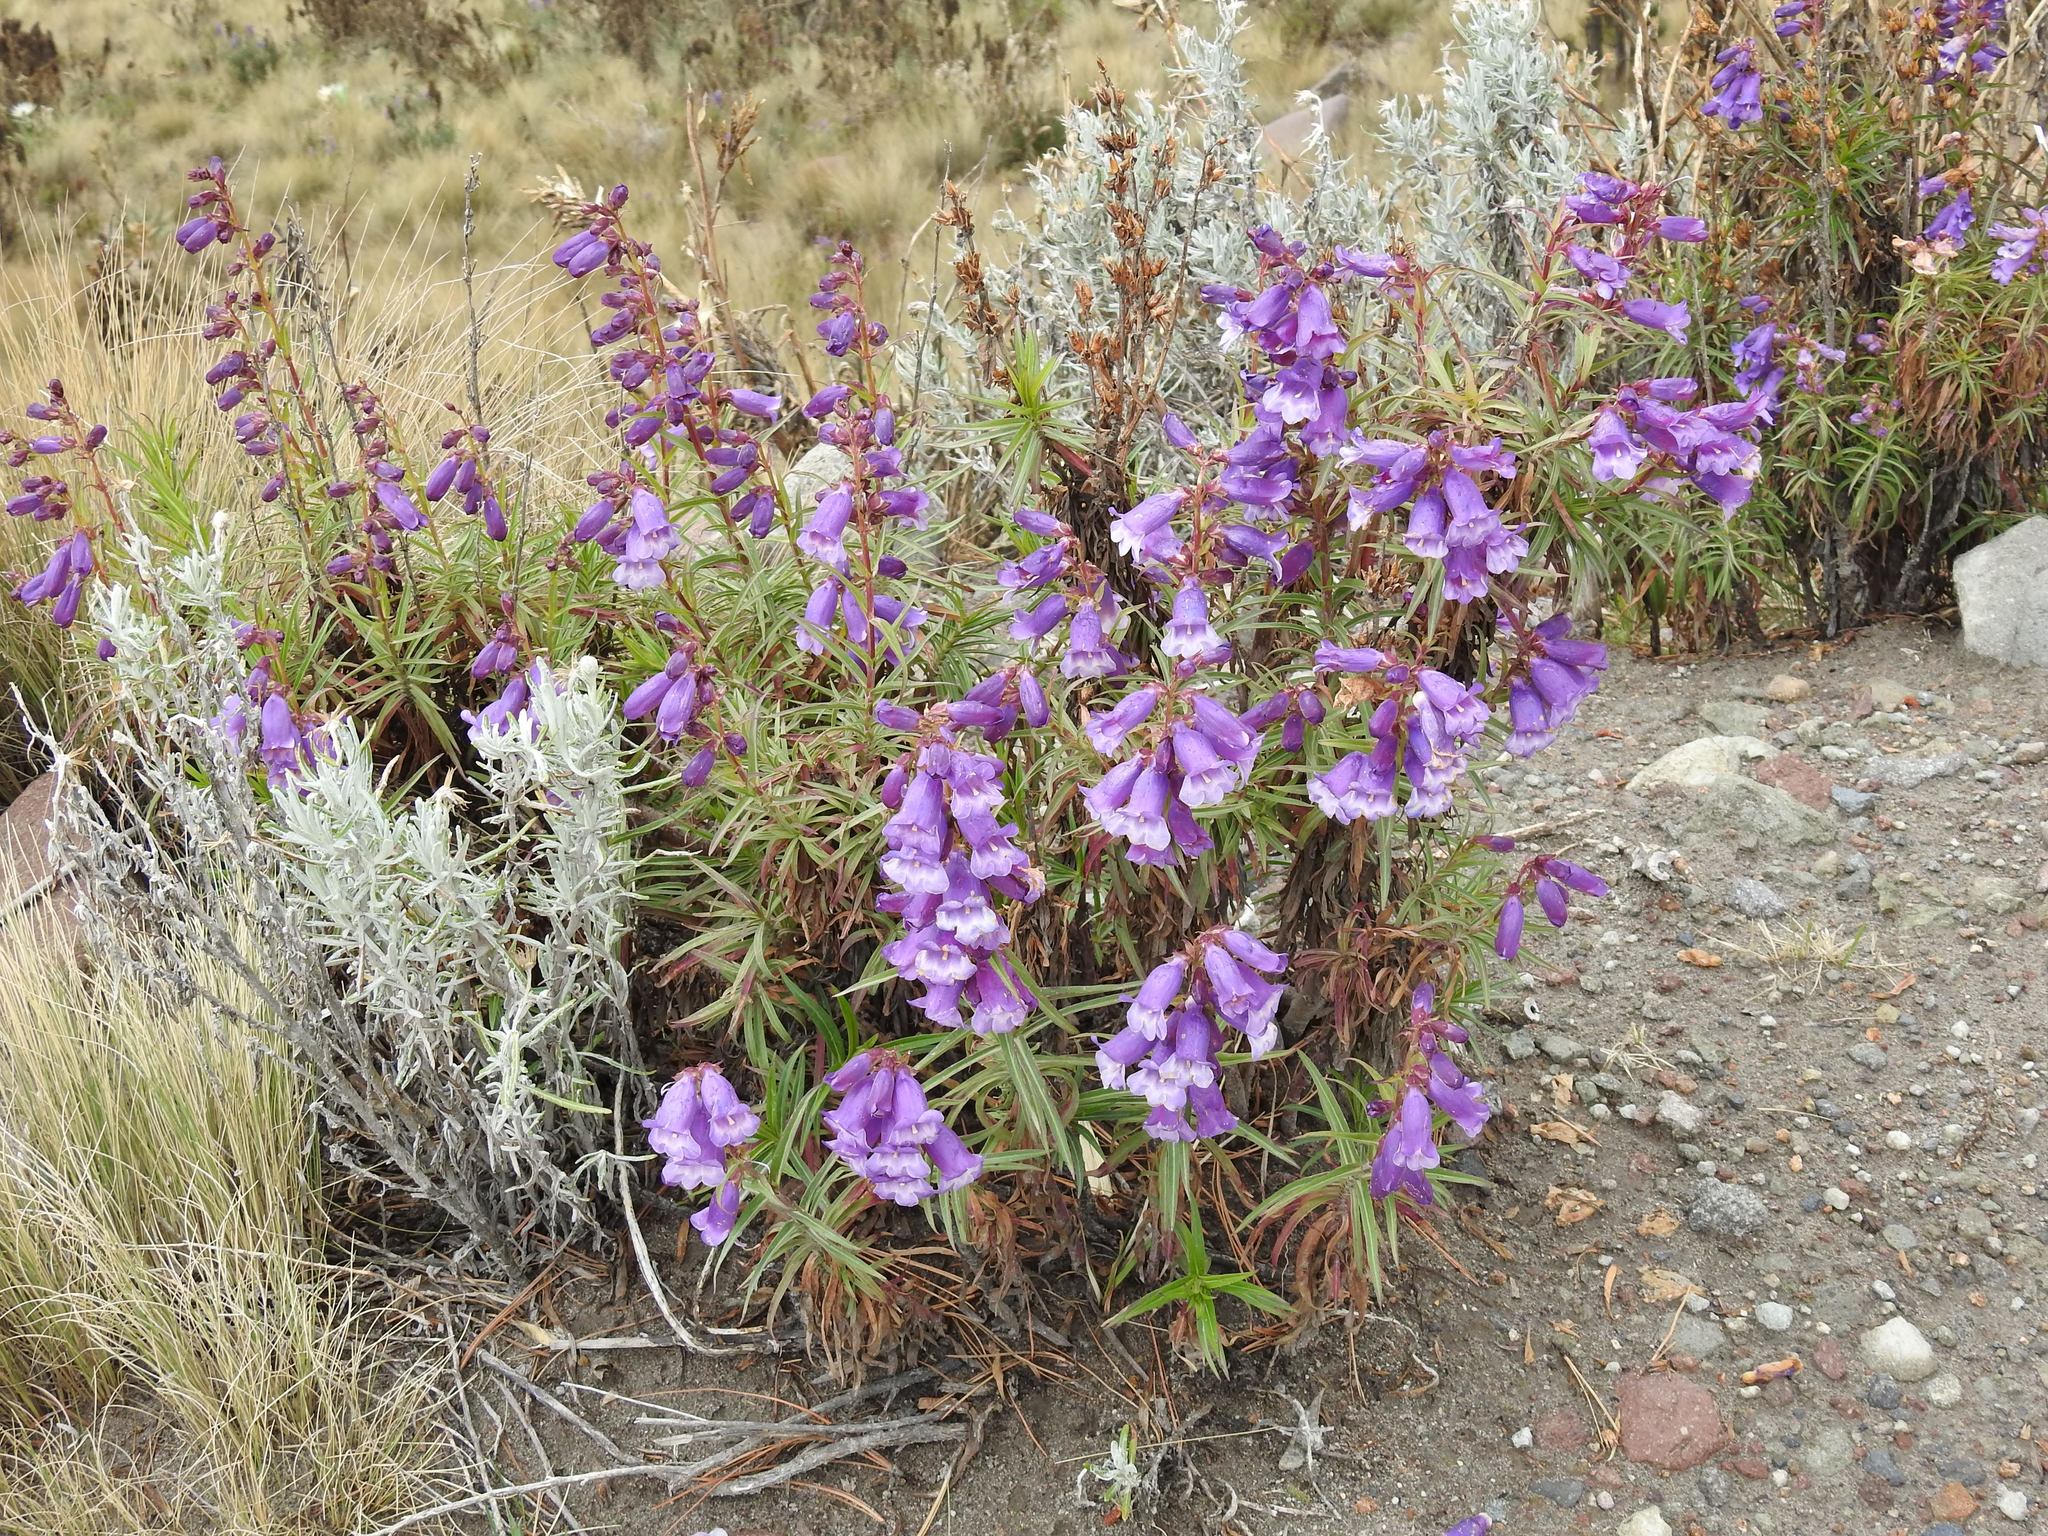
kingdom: Plantae
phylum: Tracheophyta
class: Magnoliopsida
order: Lamiales
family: Plantaginaceae
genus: Penstemon
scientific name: Penstemon gentianoides
